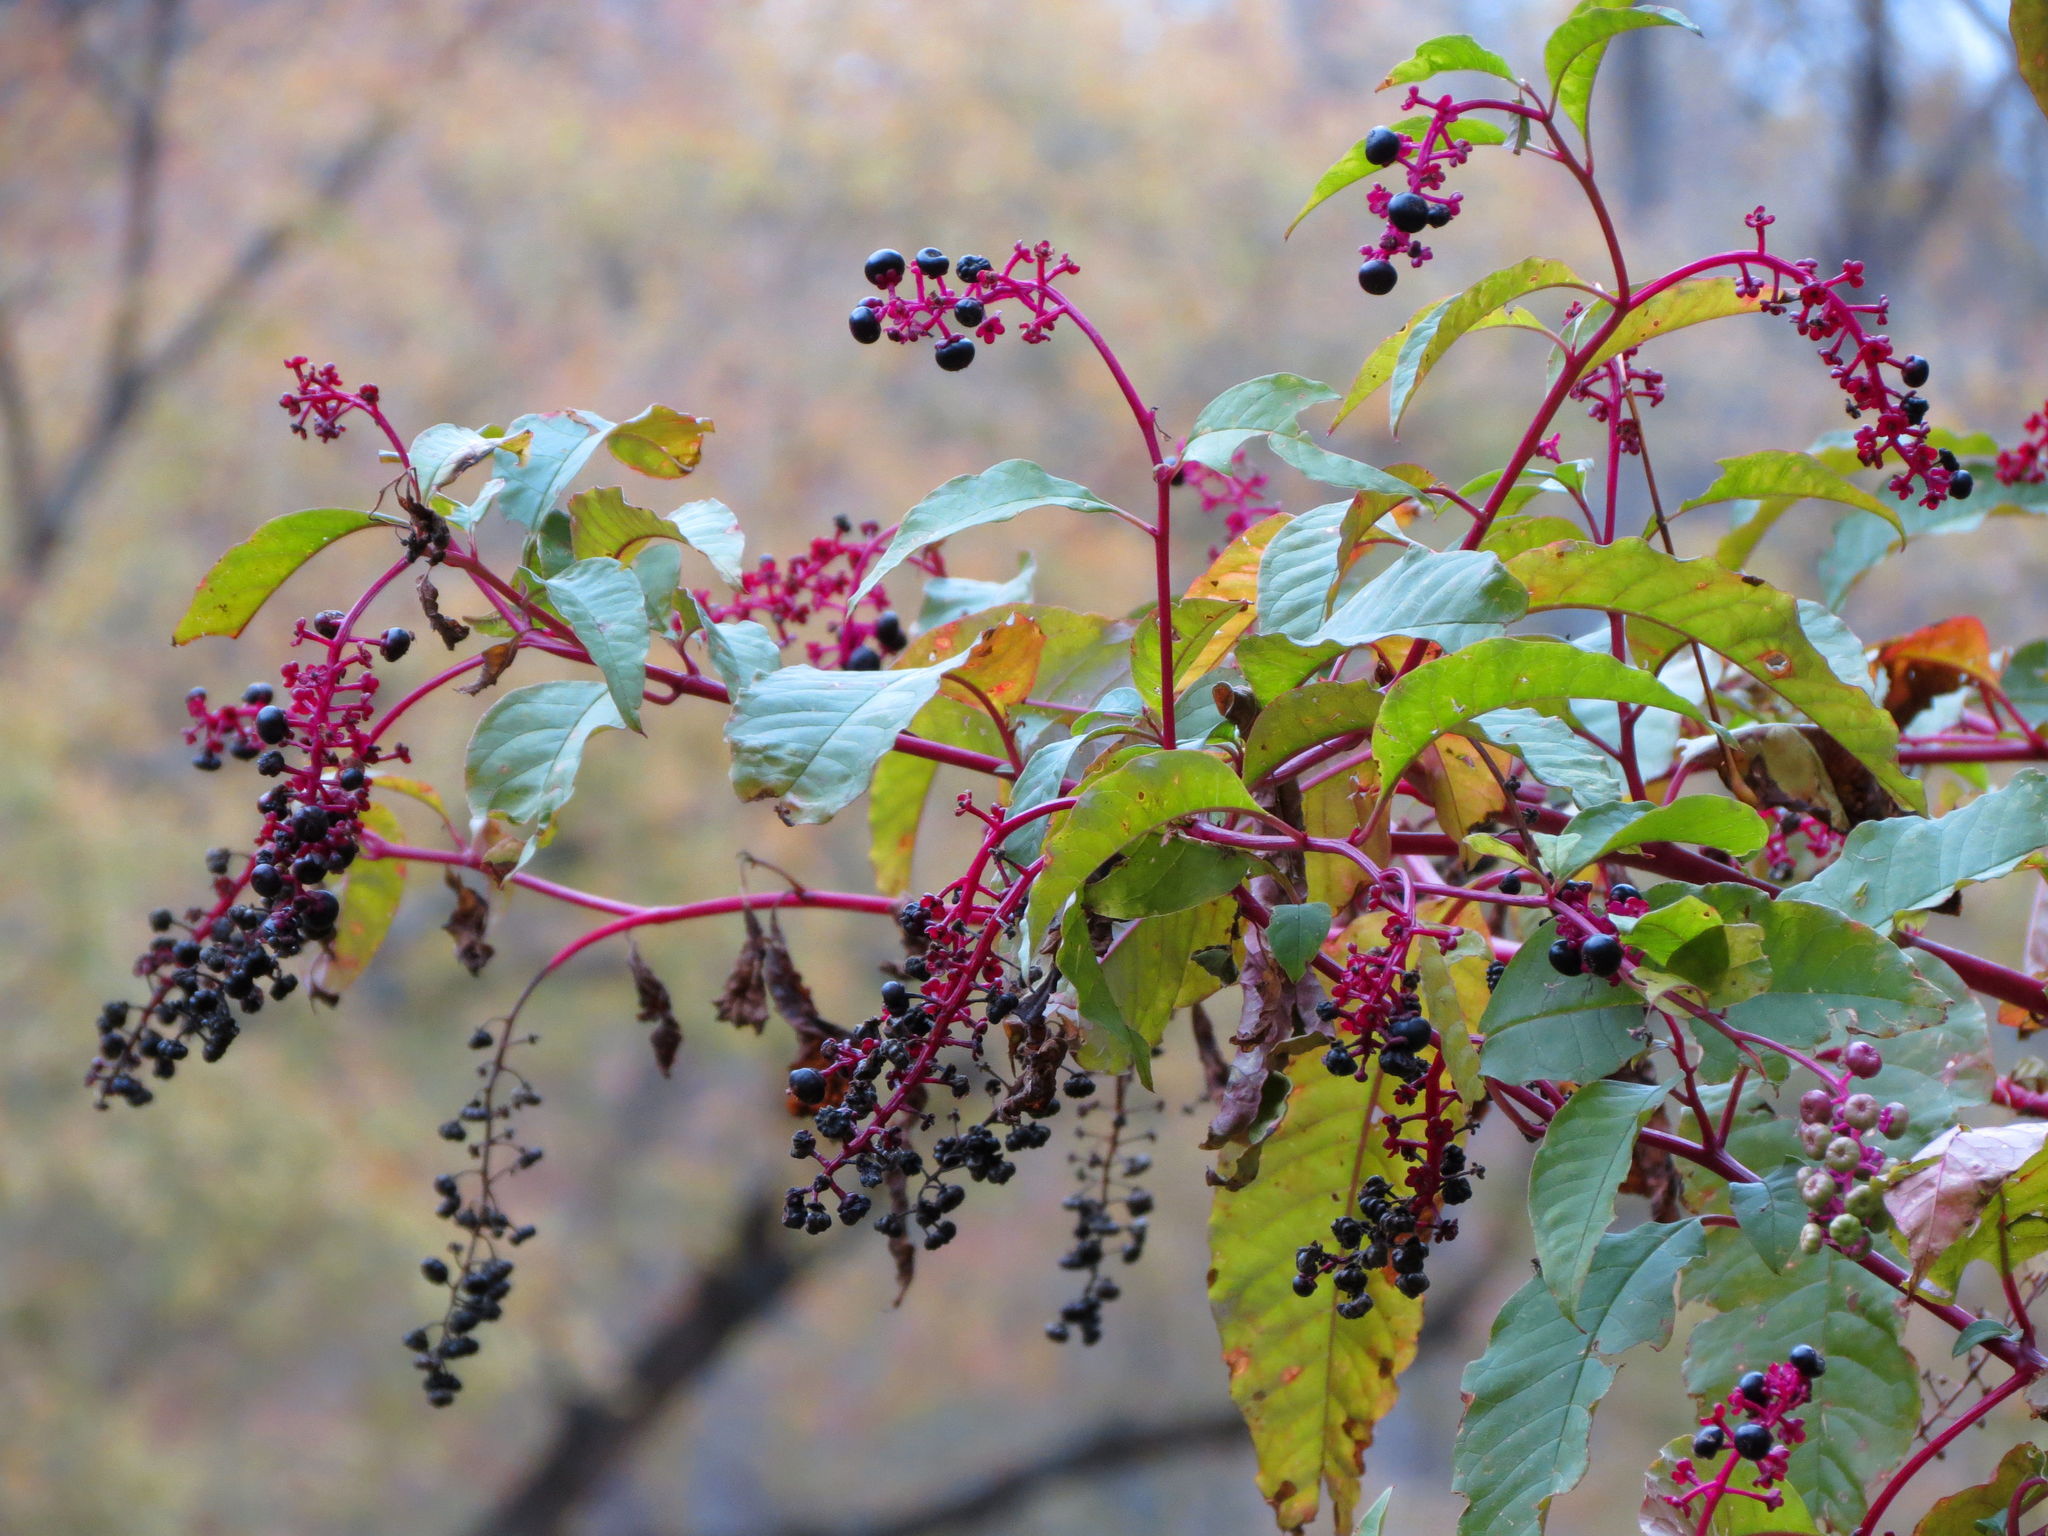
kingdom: Plantae
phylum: Tracheophyta
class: Magnoliopsida
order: Caryophyllales
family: Phytolaccaceae
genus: Phytolacca
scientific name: Phytolacca americana
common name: American pokeweed
